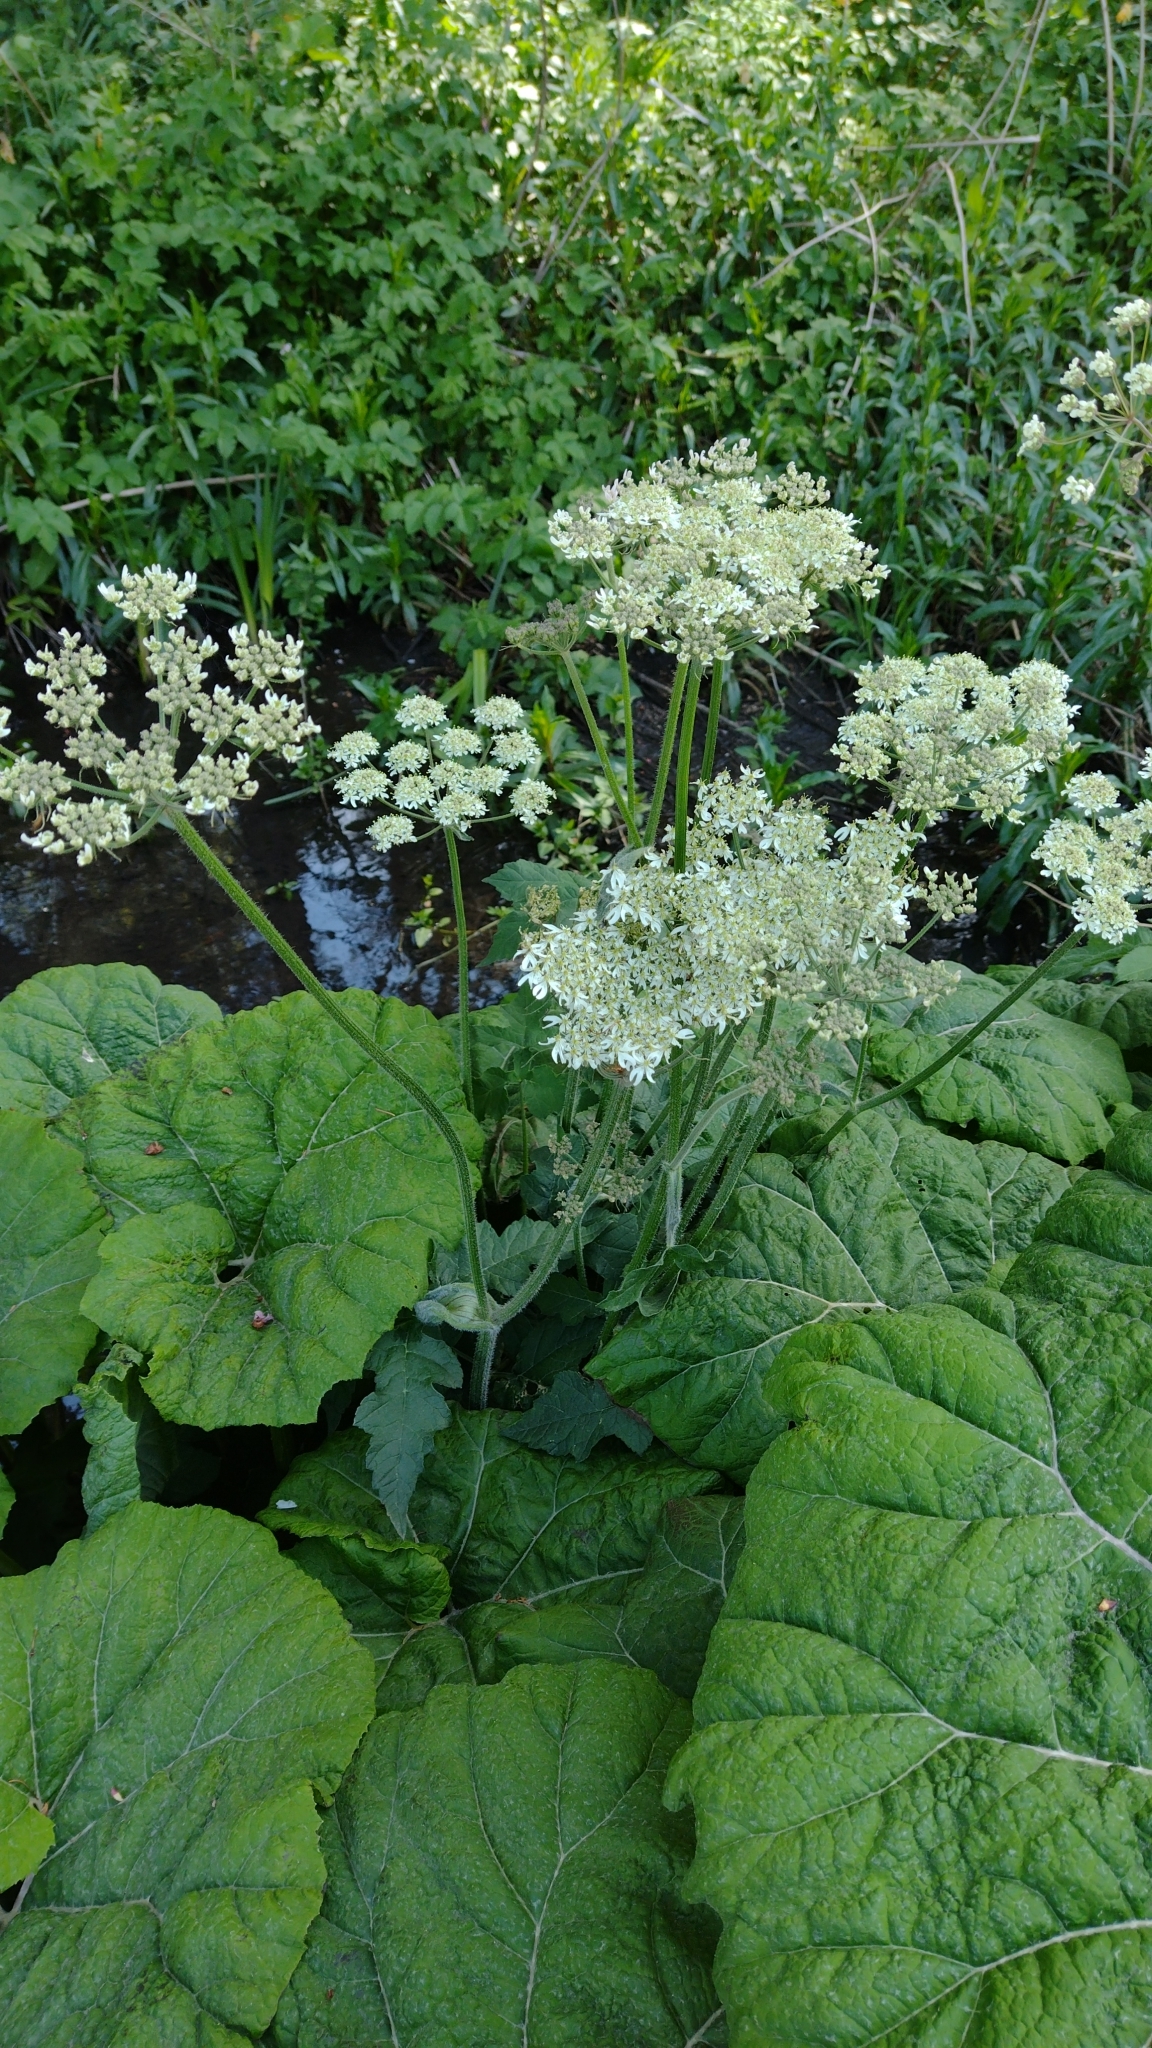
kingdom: Plantae
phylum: Tracheophyta
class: Magnoliopsida
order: Apiales
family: Apiaceae
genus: Heracleum
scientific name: Heracleum sphondylium
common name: Hogweed
